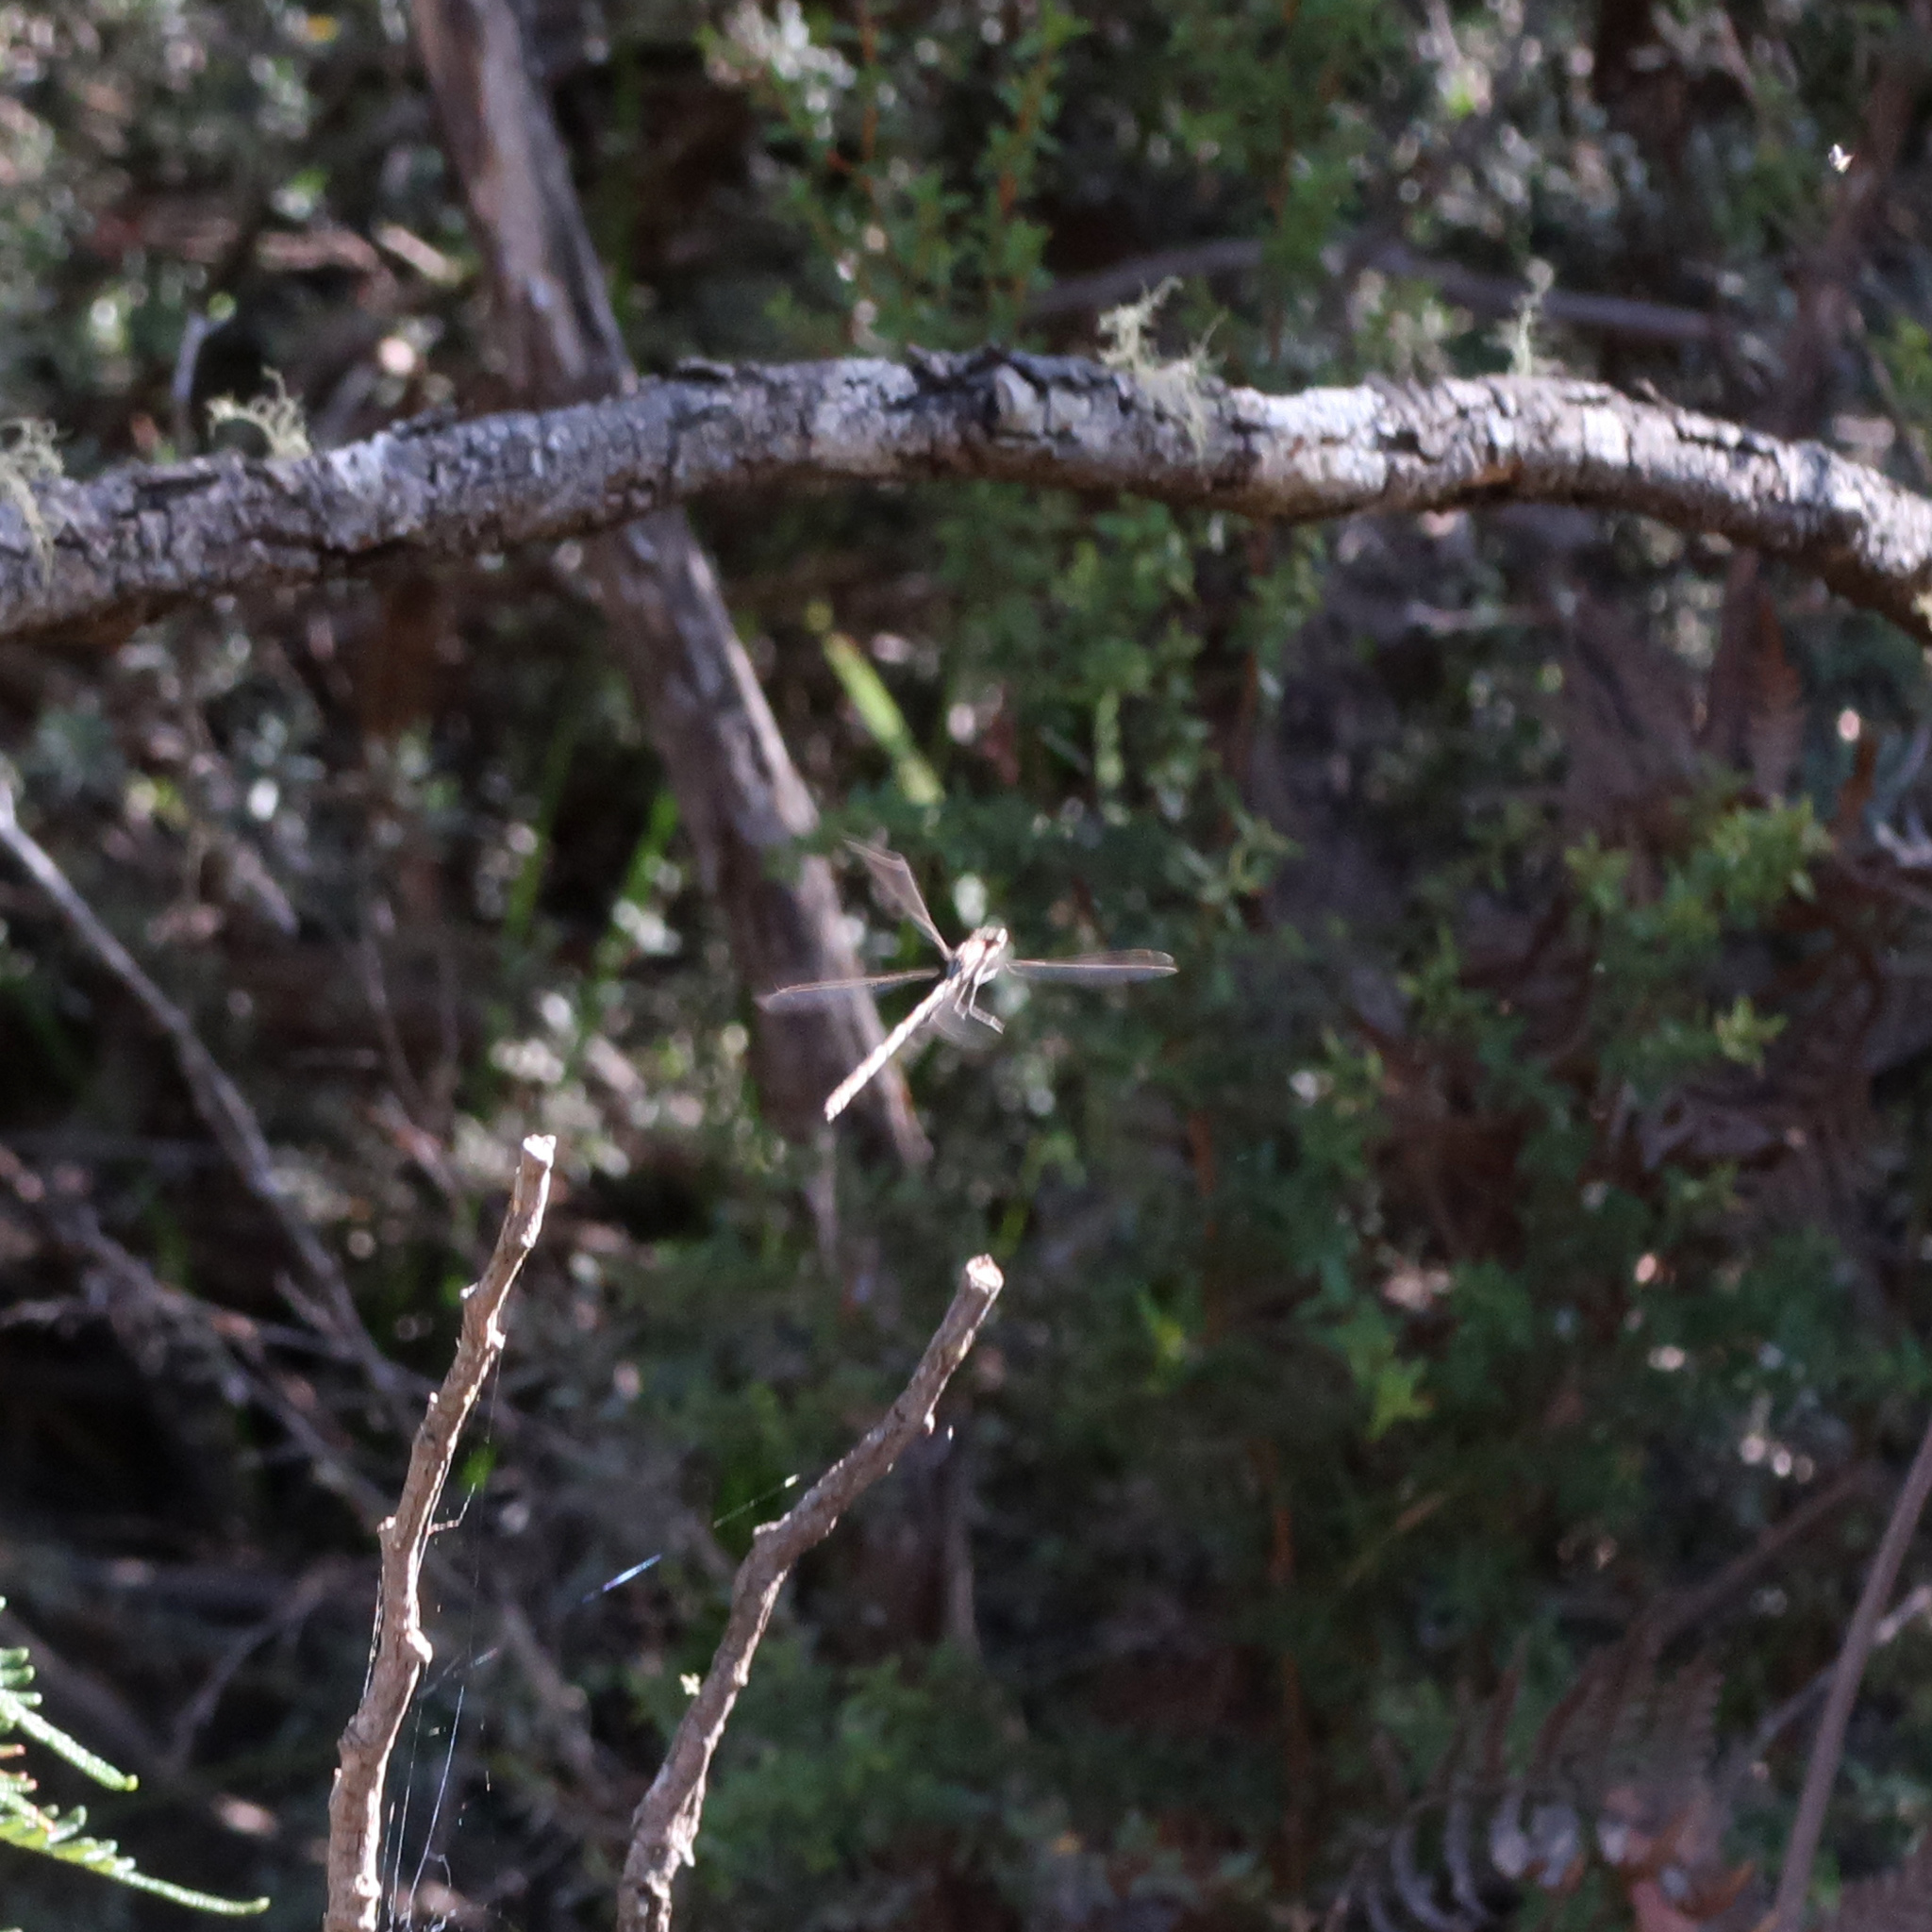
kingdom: Animalia
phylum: Arthropoda
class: Insecta
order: Odonata
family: Lestidae
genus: Austrolestes
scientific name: Austrolestes io
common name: Iota ringtail
